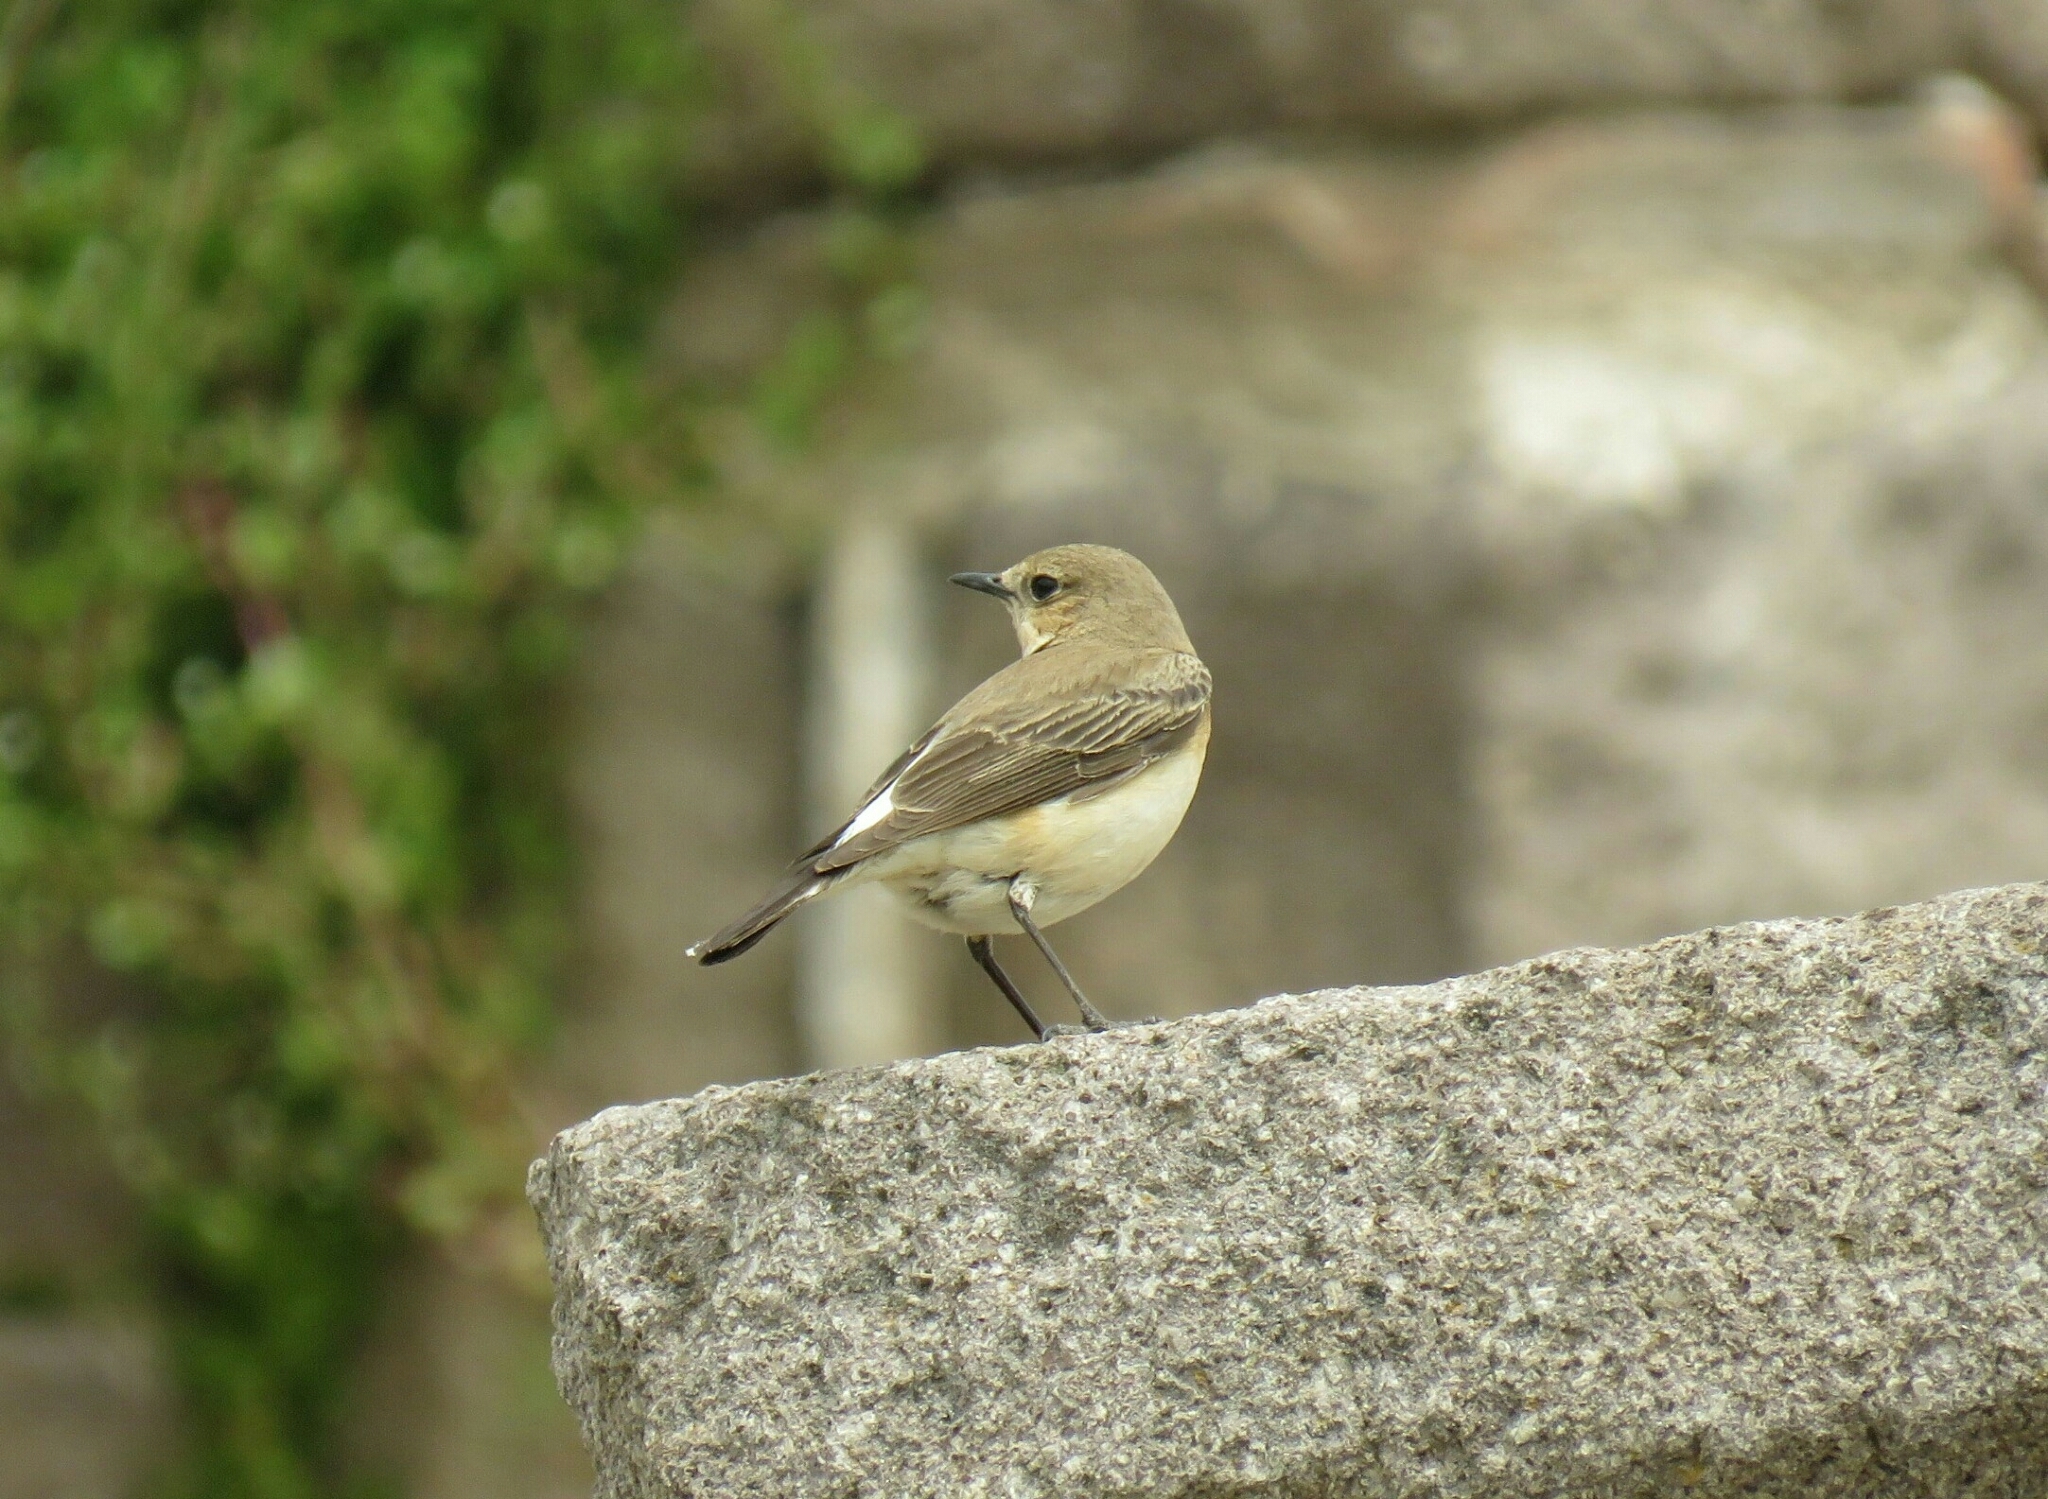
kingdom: Animalia
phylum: Chordata
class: Aves
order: Passeriformes
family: Muscicapidae
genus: Oenanthe
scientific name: Oenanthe hispanica
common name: Black-eared wheatear
